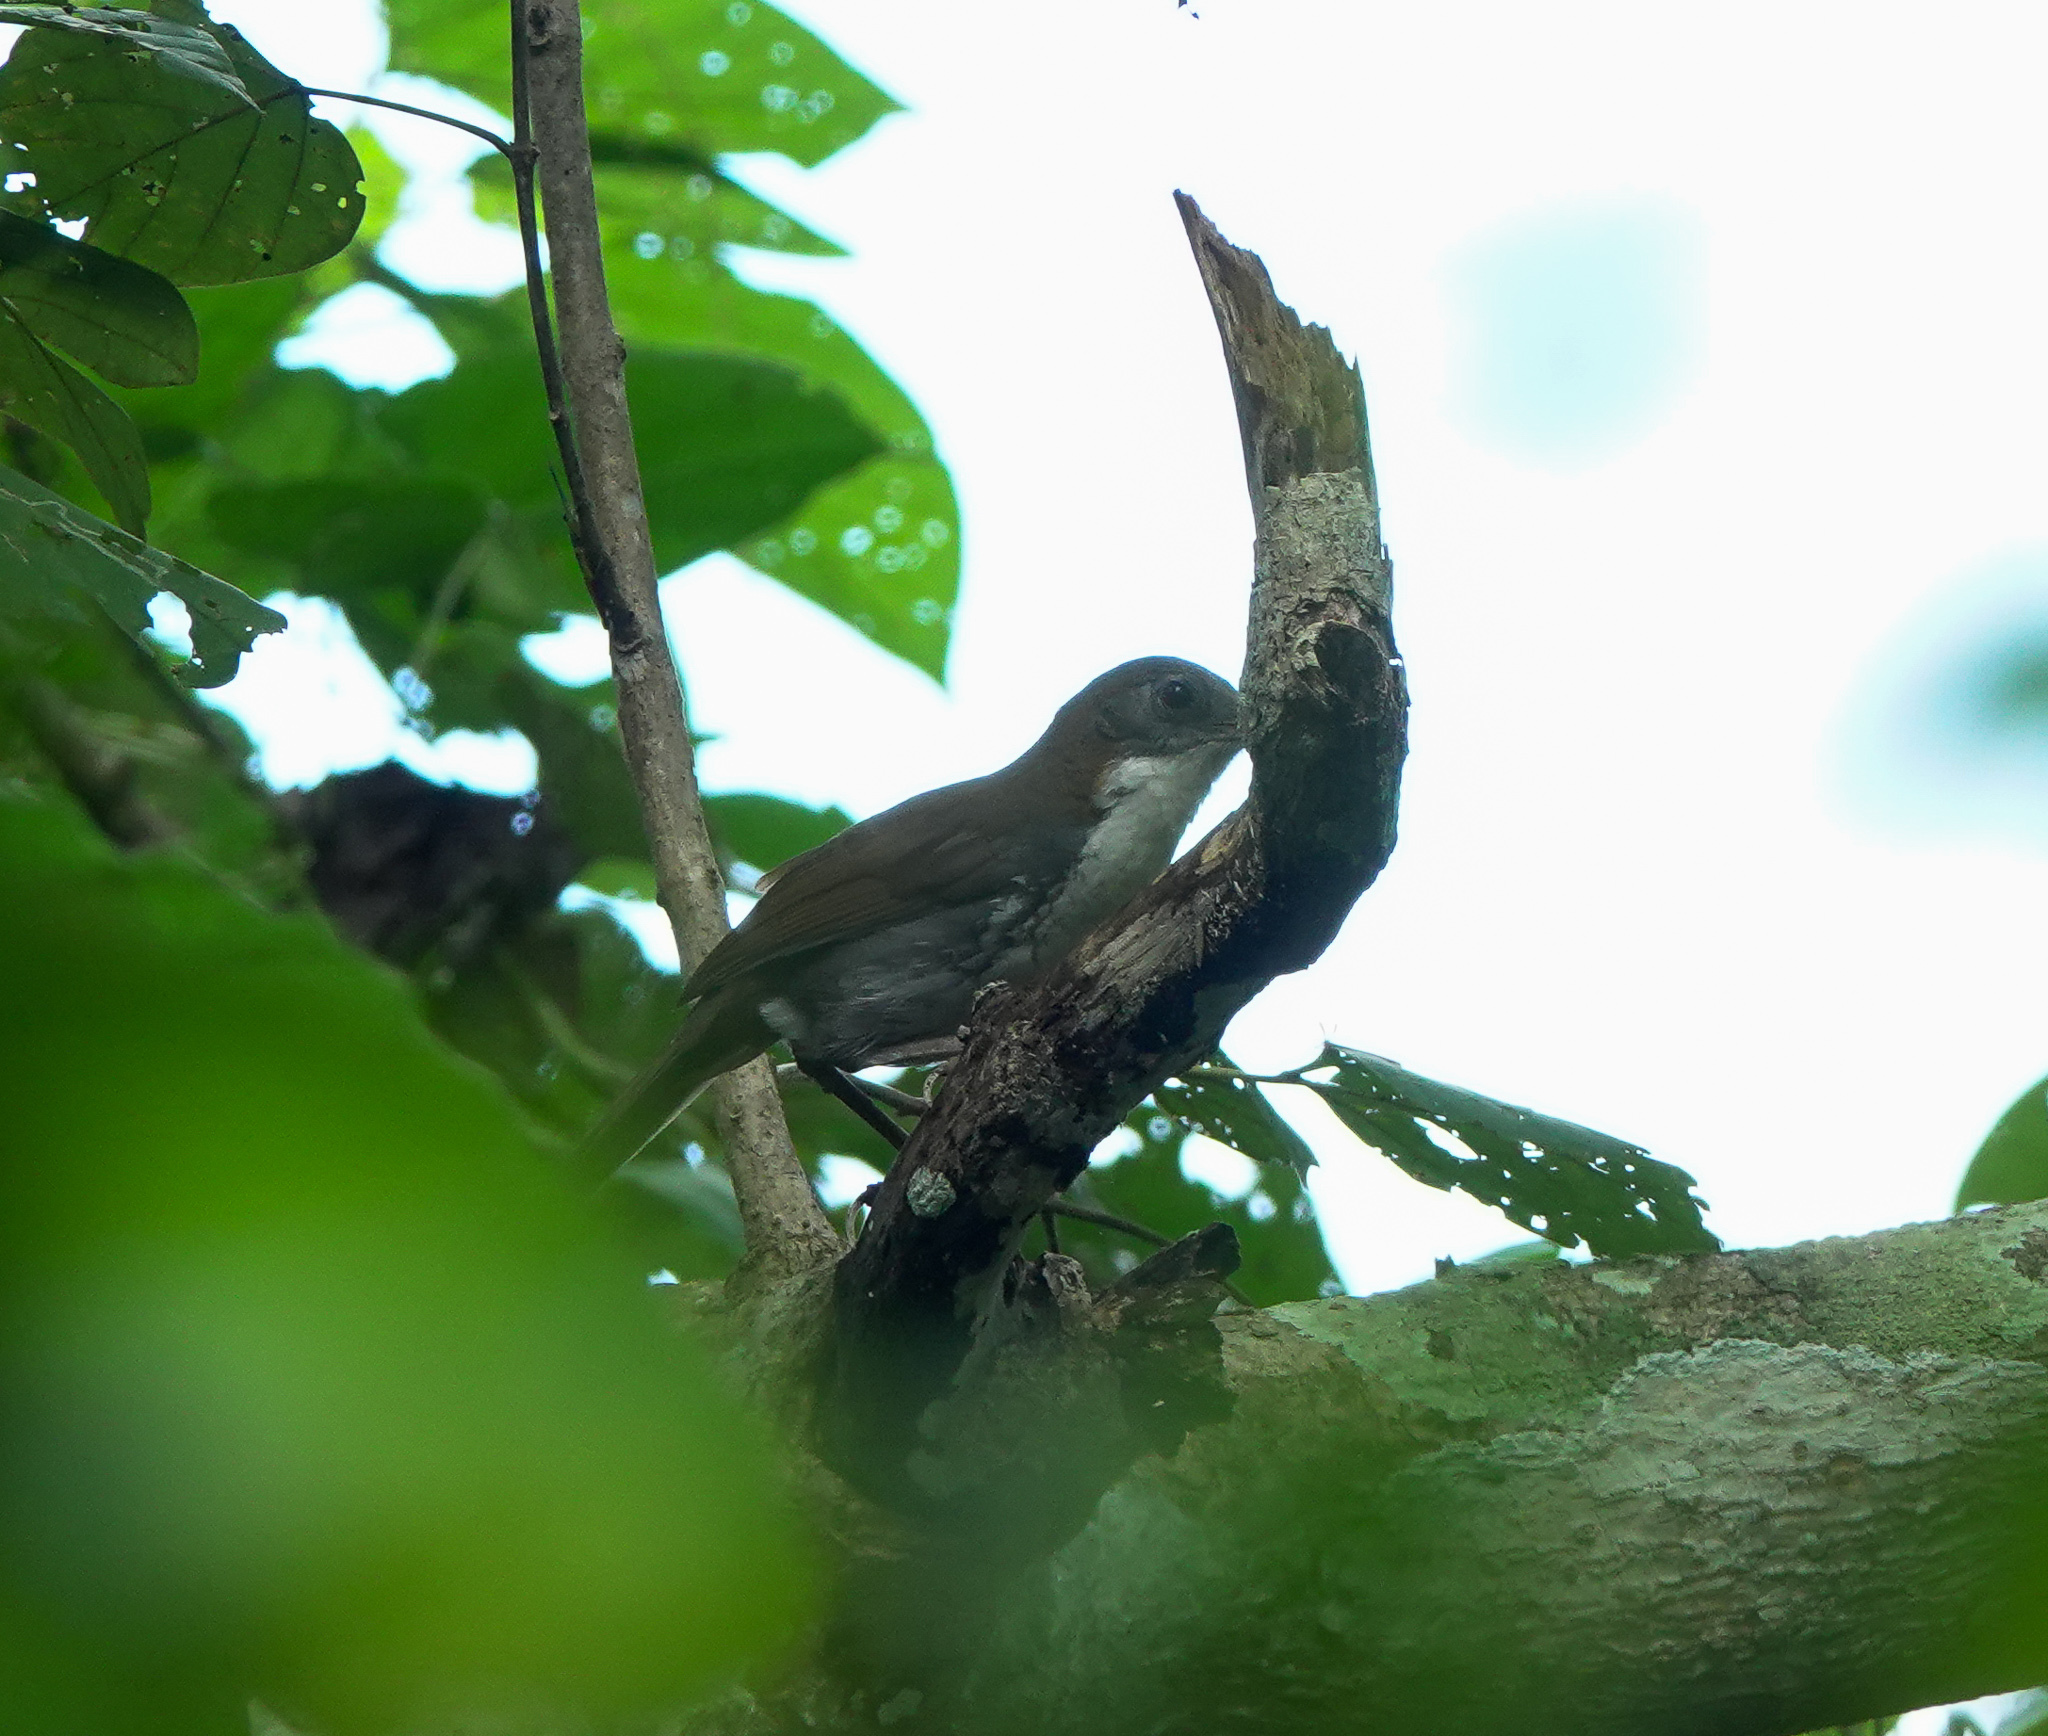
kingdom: Animalia
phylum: Chordata
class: Aves
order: Passeriformes
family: Timaliidae
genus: Pomatorhinus
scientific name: Pomatorhinus hypoleucos
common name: Large scimitar babbler
